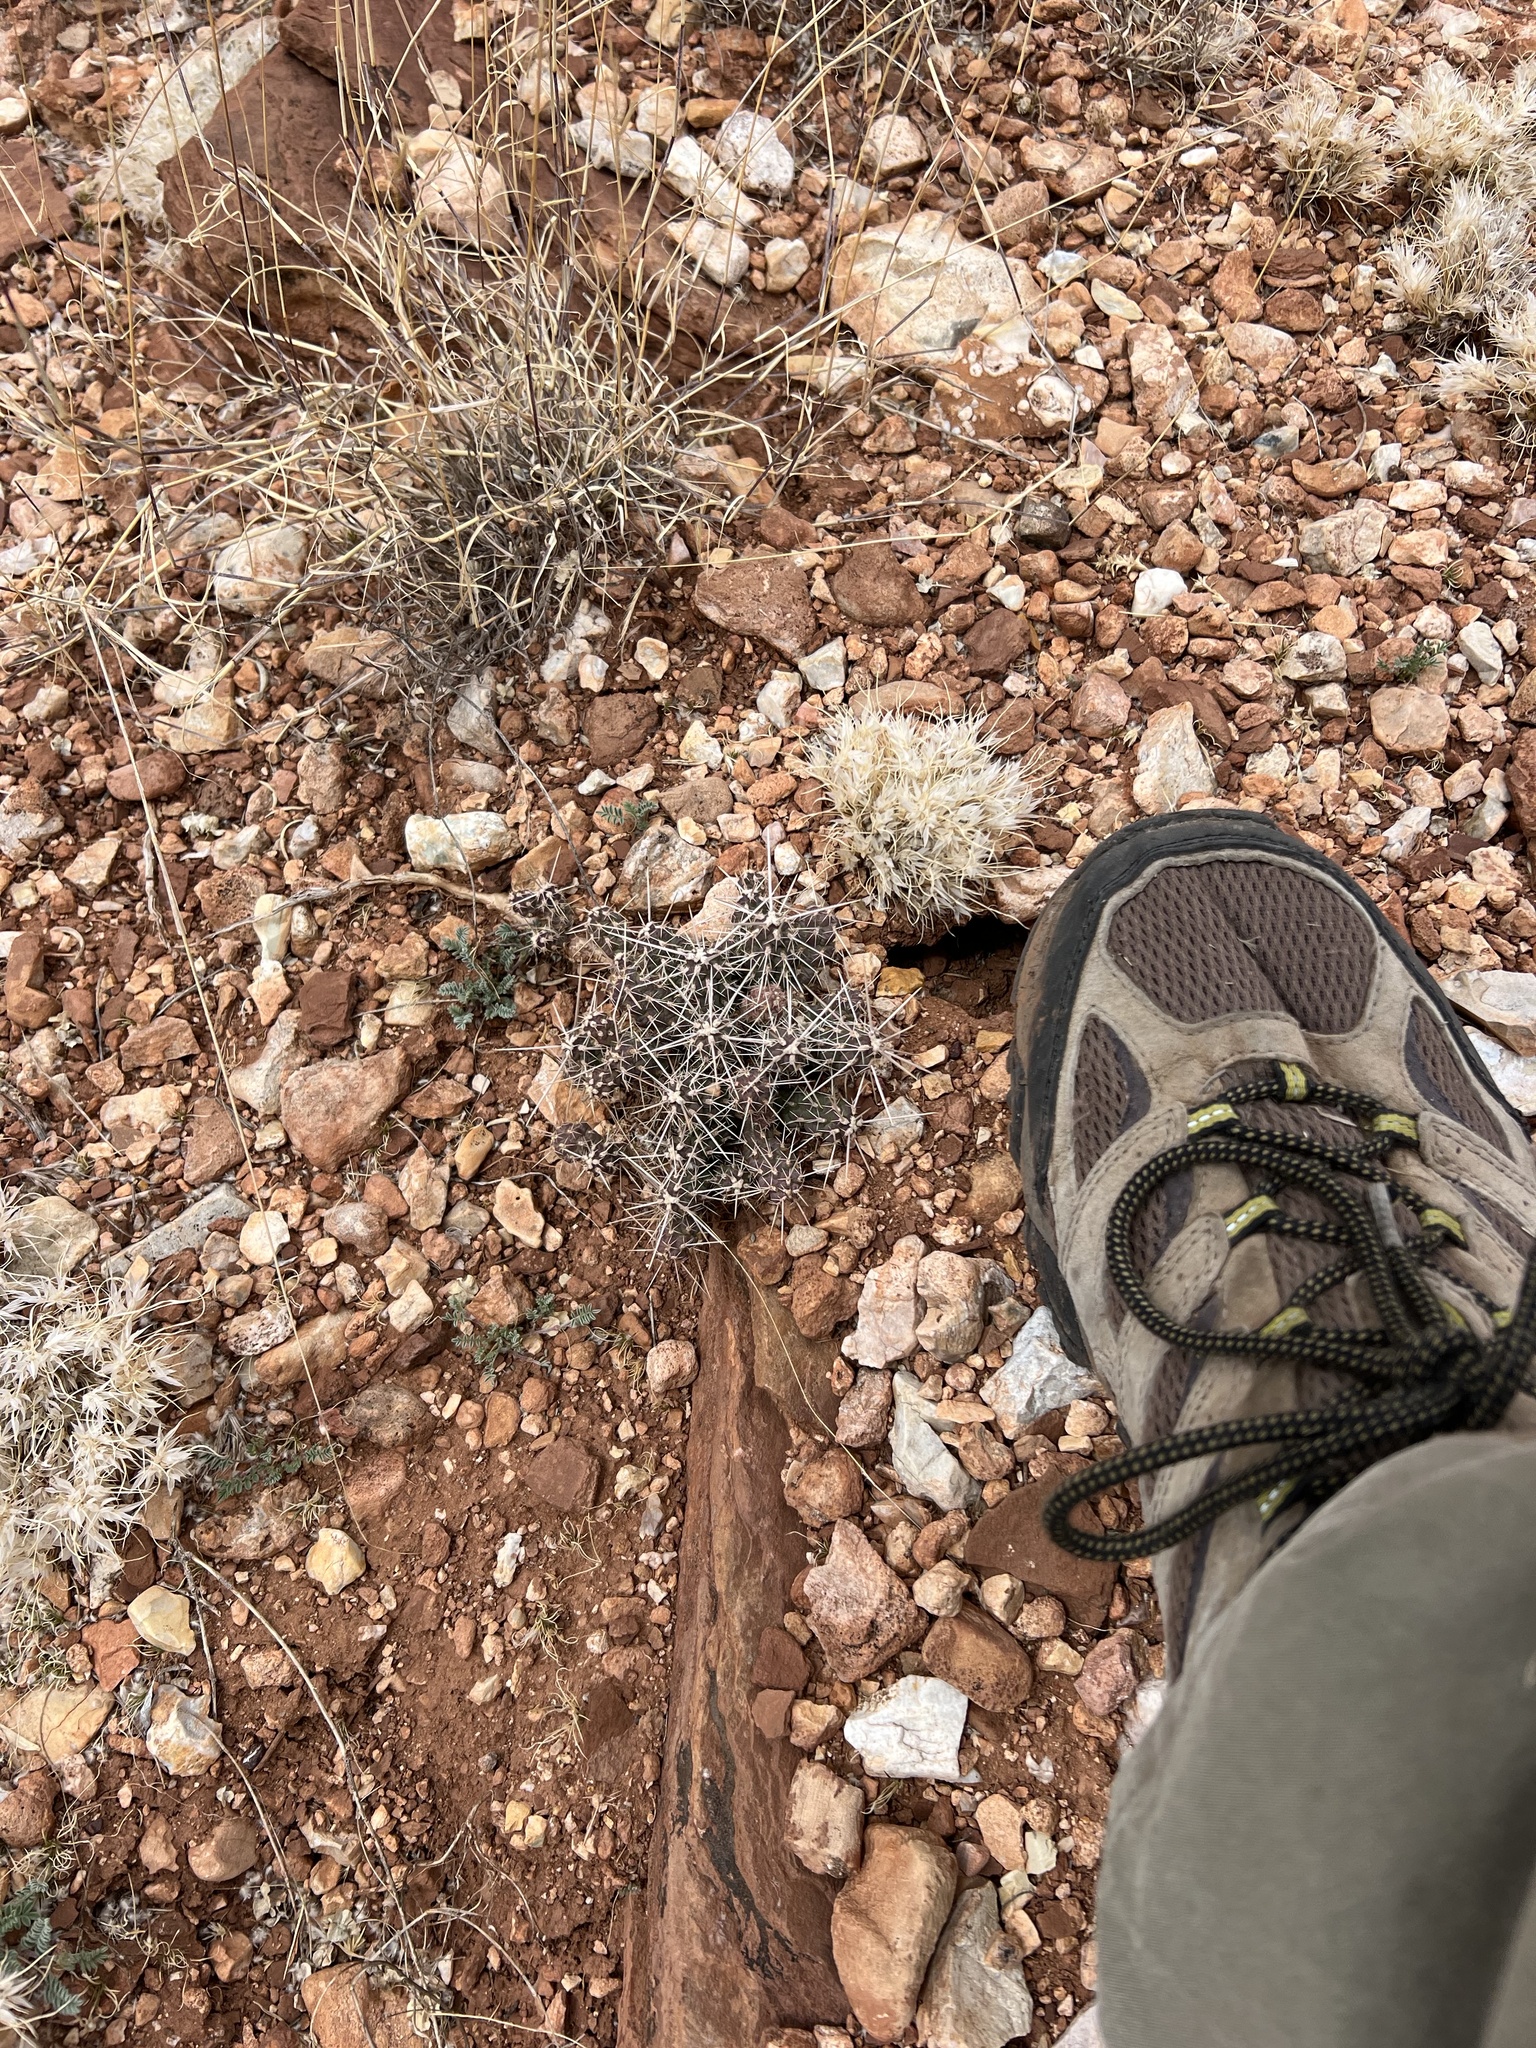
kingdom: Plantae
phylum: Tracheophyta
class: Magnoliopsida
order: Caryophyllales
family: Cactaceae
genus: Cylindropuntia
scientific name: Cylindropuntia whipplei
